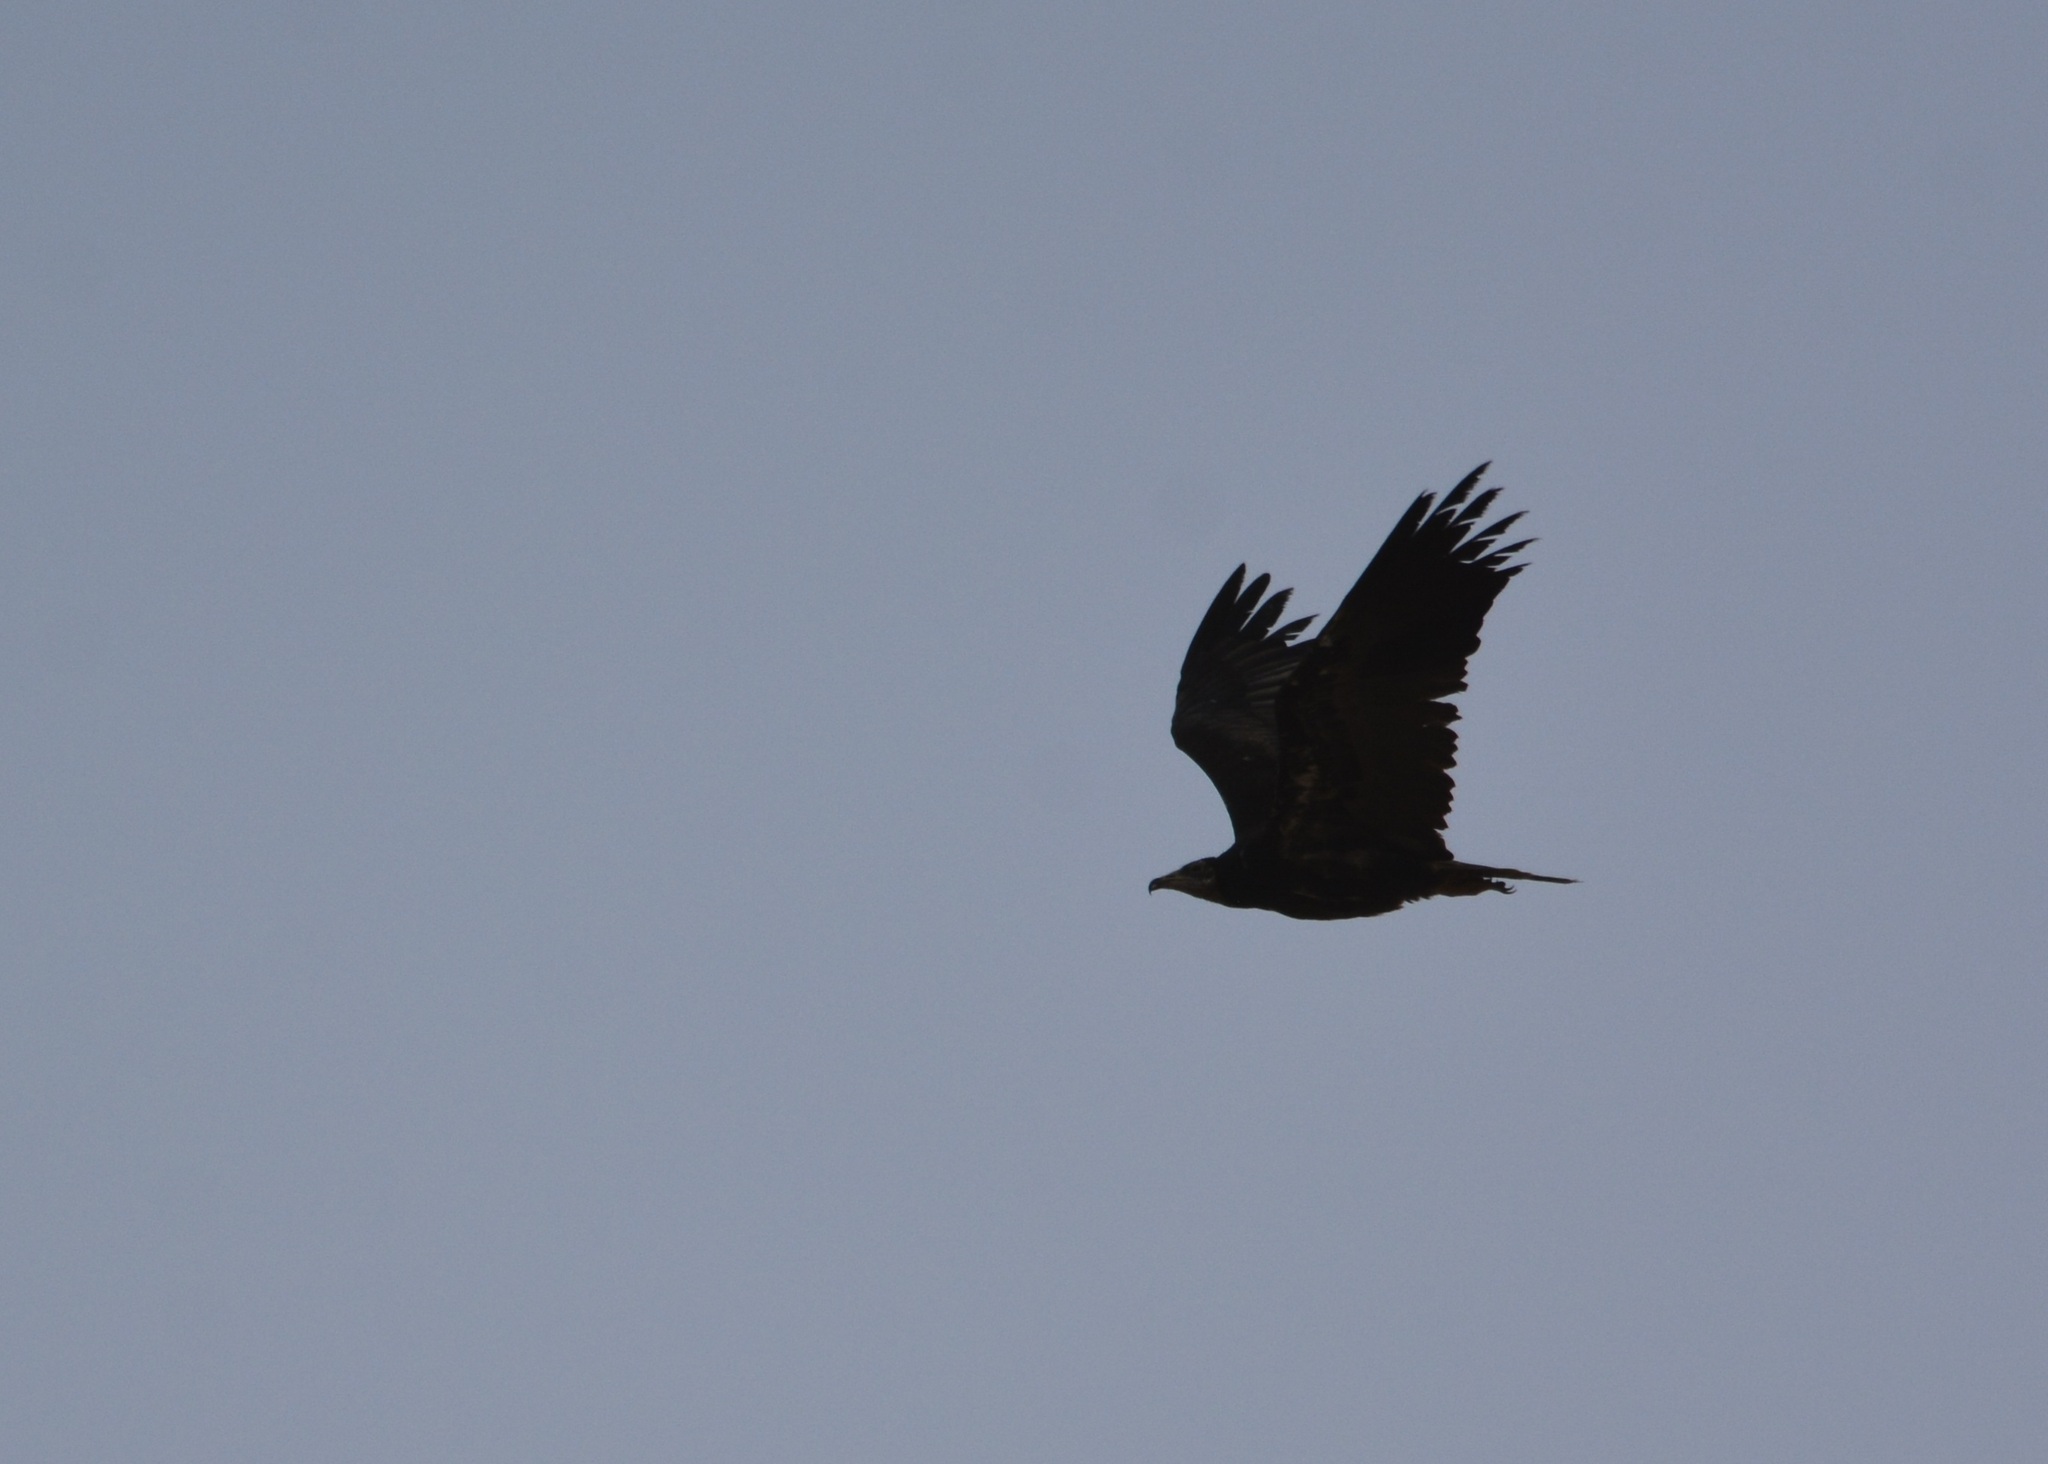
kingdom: Animalia
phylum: Chordata
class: Aves
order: Accipitriformes
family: Accipitridae
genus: Neophron
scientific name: Neophron percnopterus
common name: Egyptian vulture
